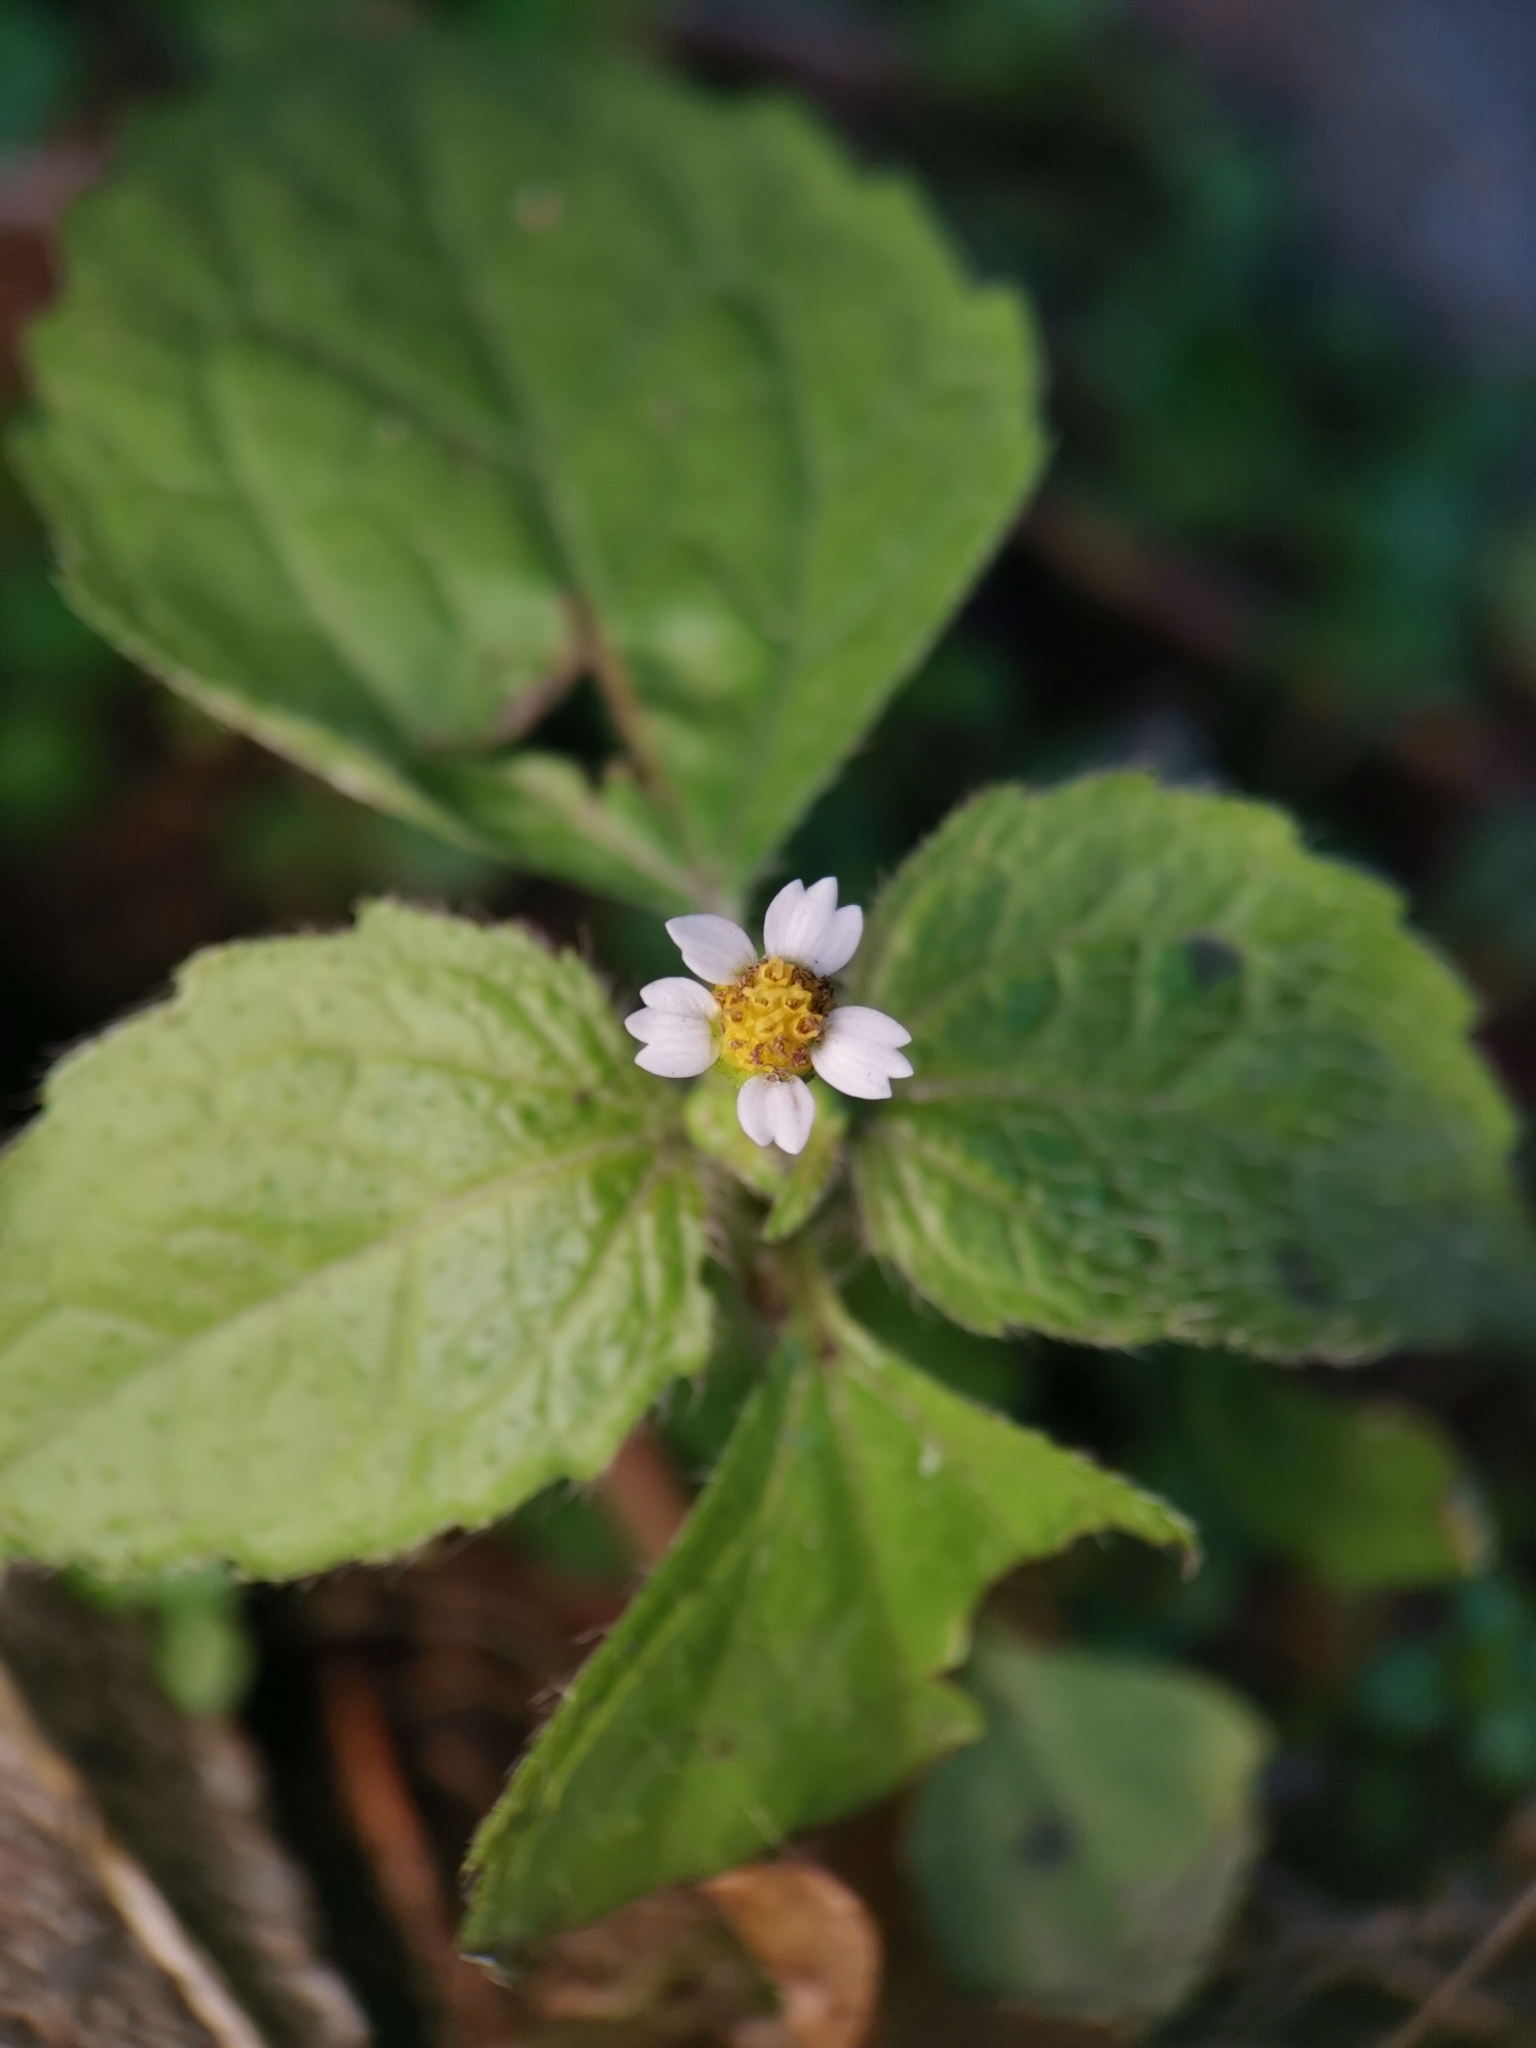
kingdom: Plantae
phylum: Tracheophyta
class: Magnoliopsida
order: Asterales
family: Asteraceae
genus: Galinsoga
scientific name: Galinsoga quadriradiata
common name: Shaggy soldier
